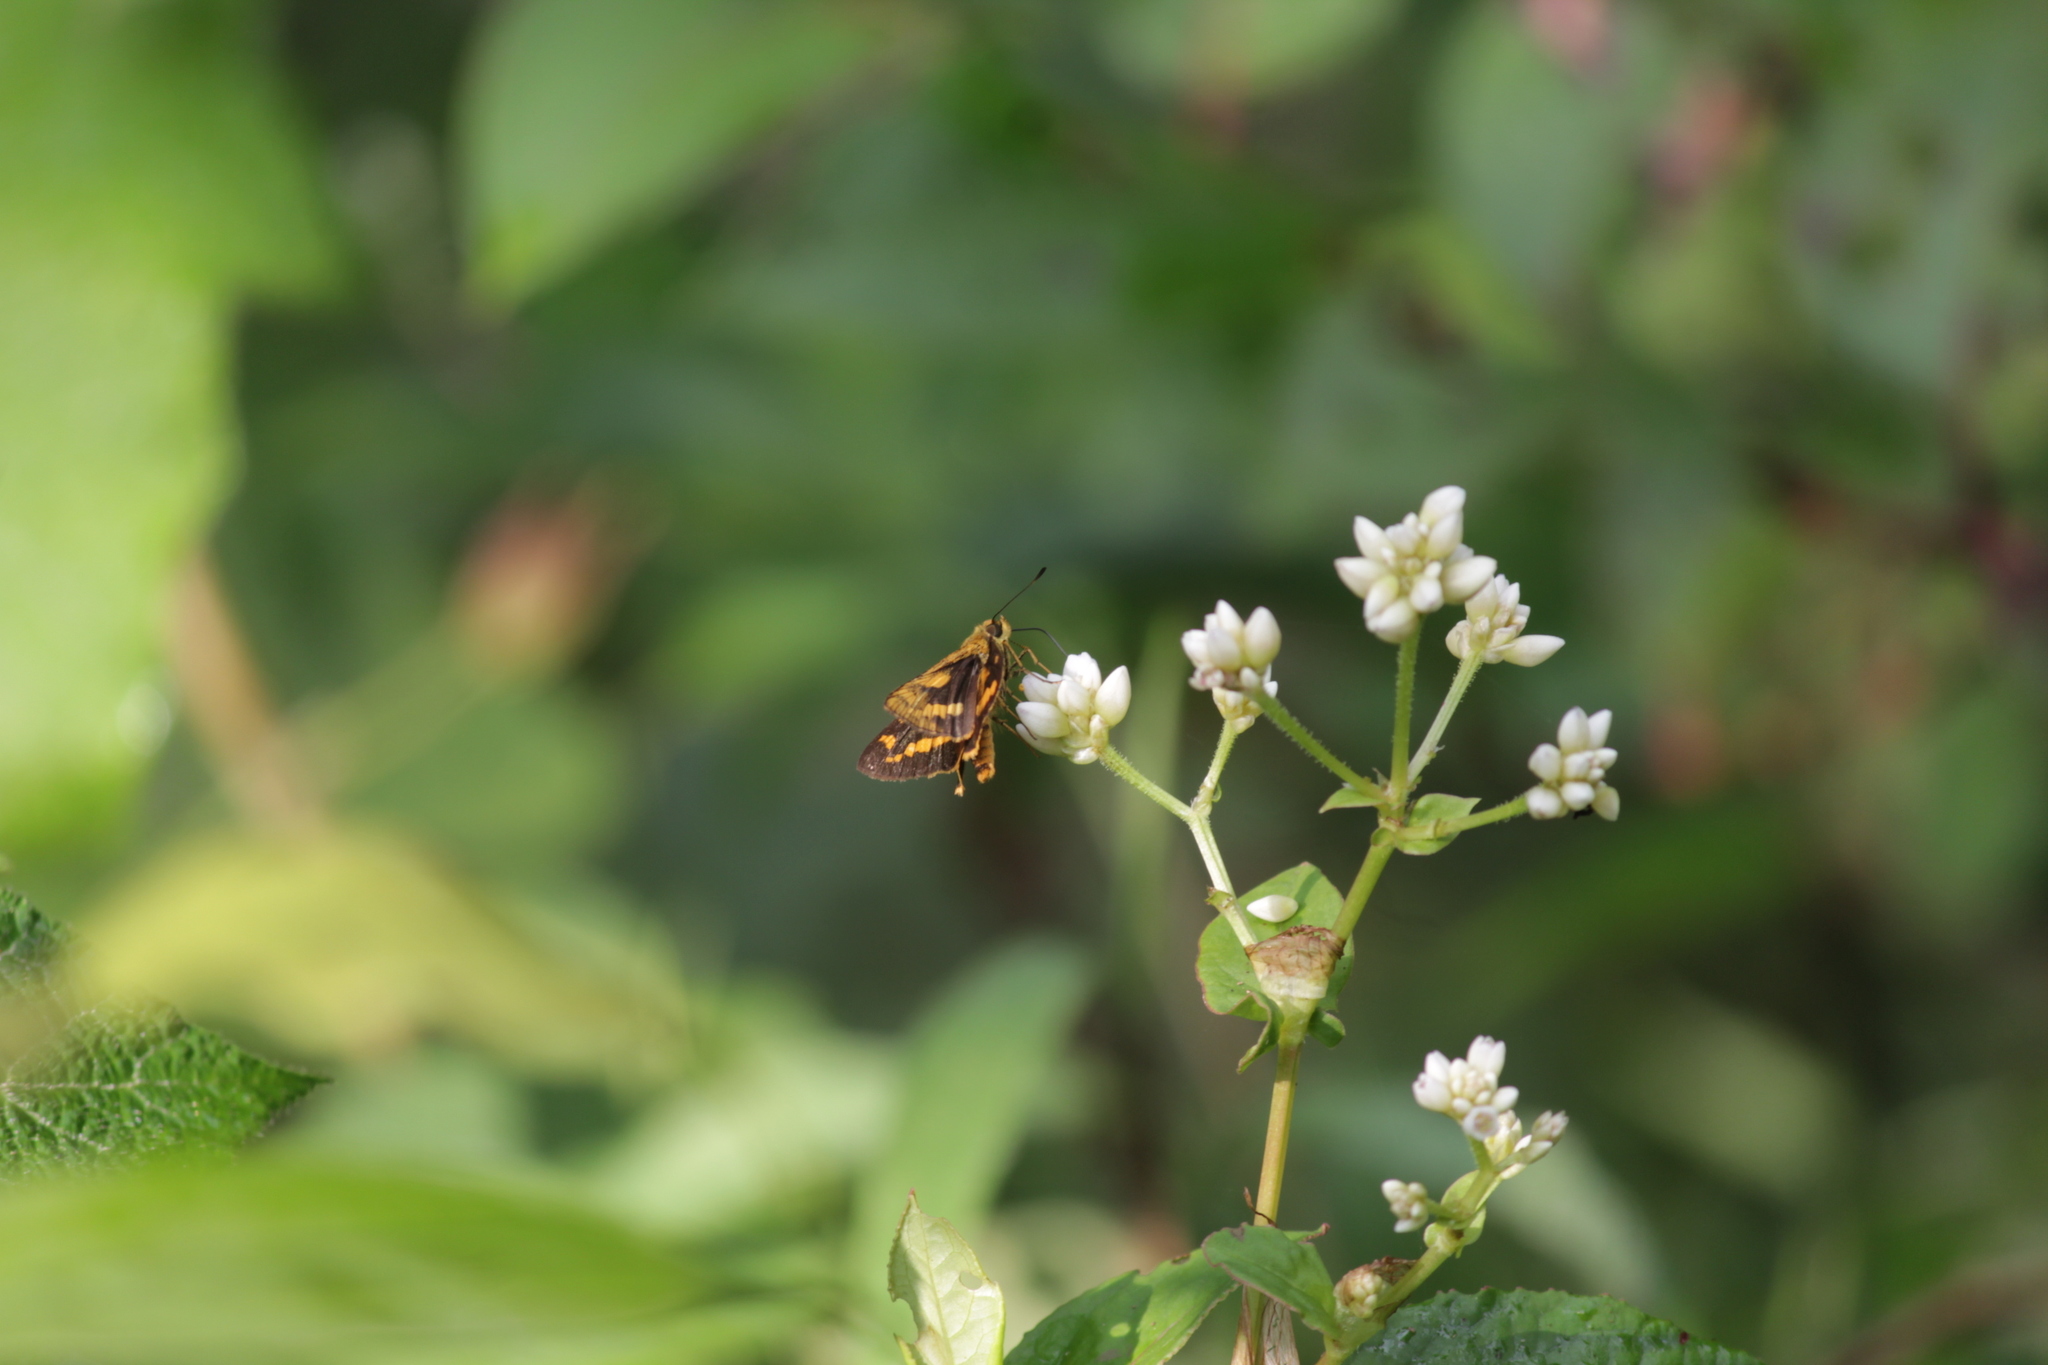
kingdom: Animalia
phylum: Arthropoda
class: Insecta
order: Lepidoptera
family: Hesperiidae
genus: Potanthus
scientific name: Potanthus palnia
